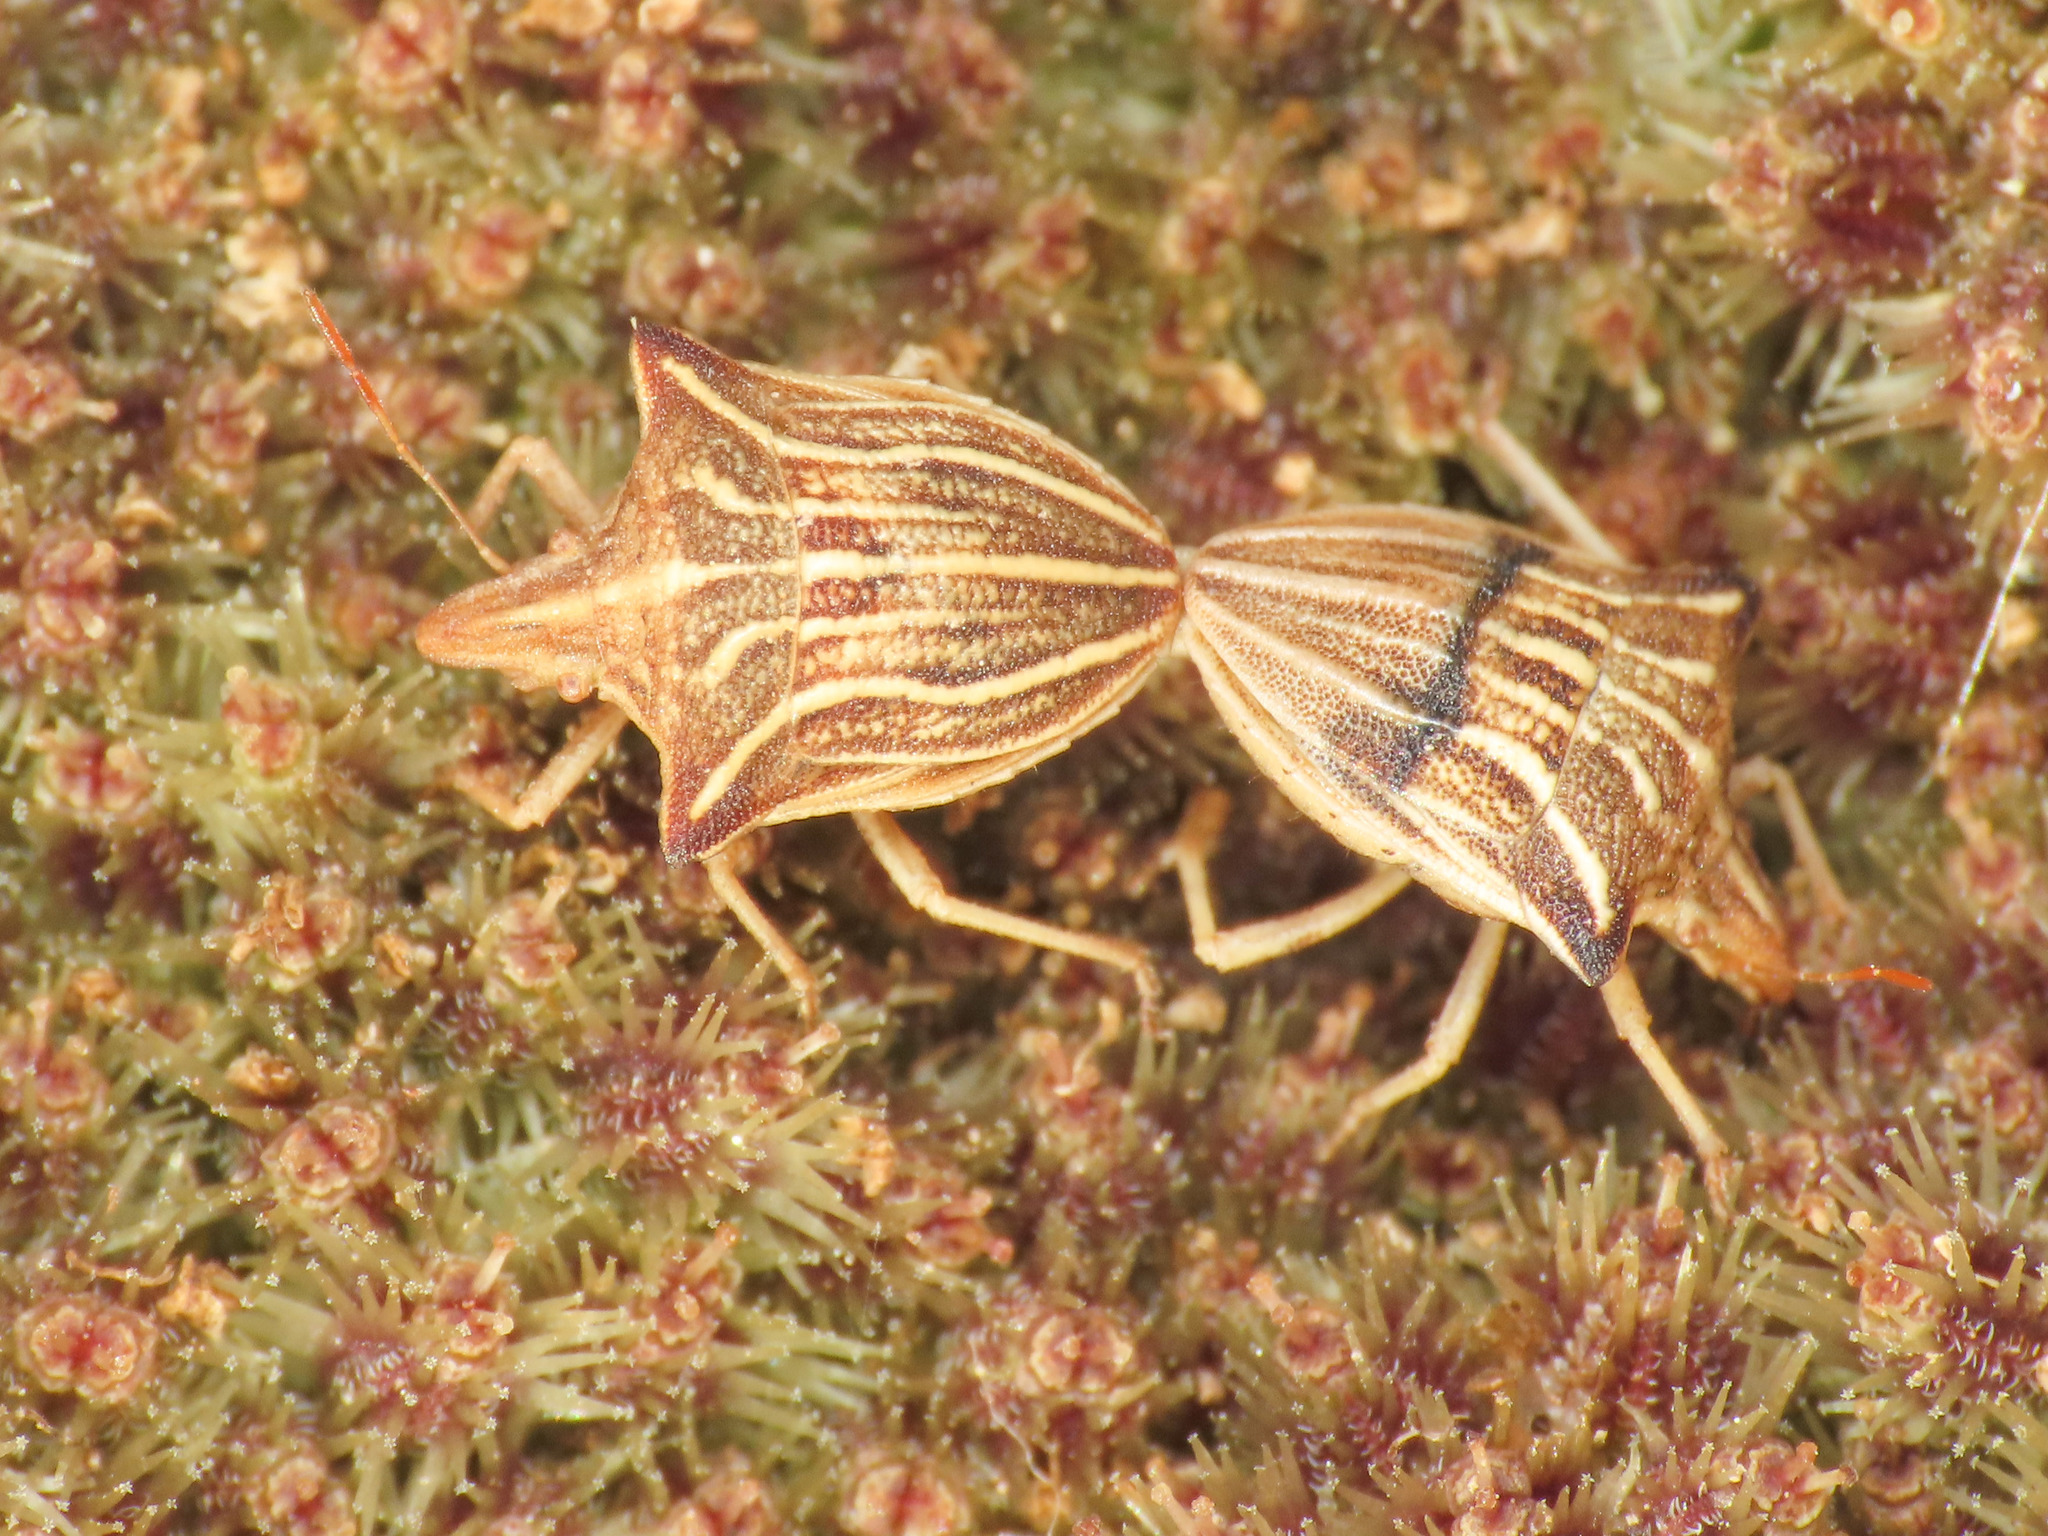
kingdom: Animalia
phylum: Arthropoda
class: Insecta
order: Hemiptera
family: Pentatomidae
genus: Ancyrosoma
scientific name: Ancyrosoma leucogrammes
